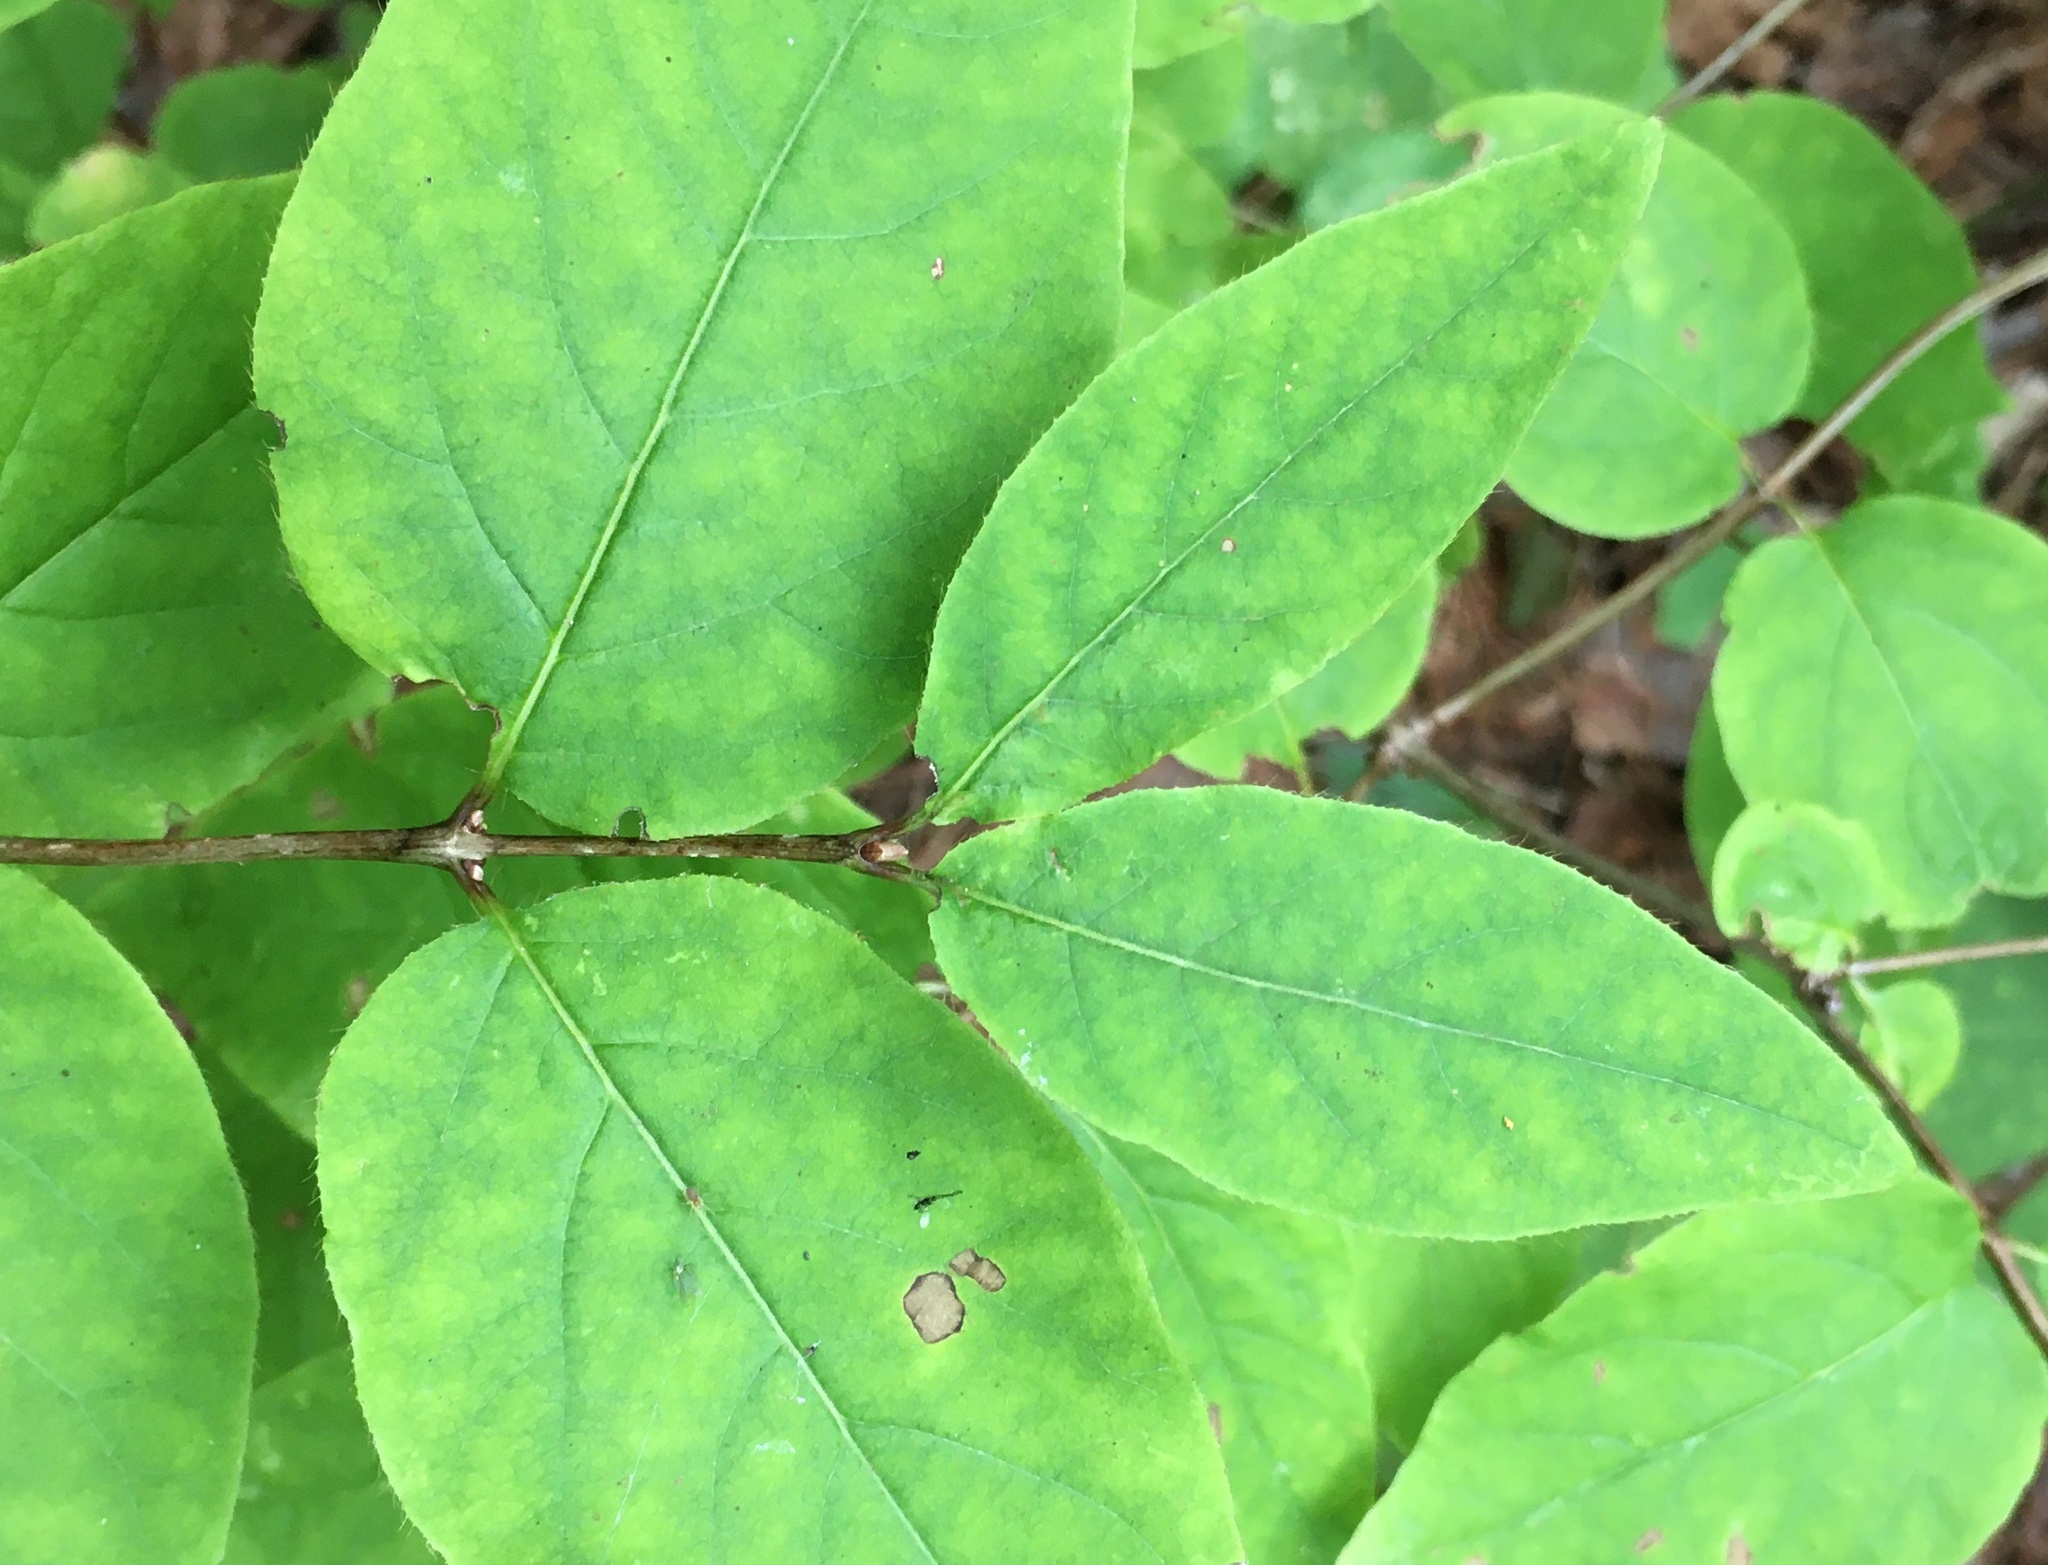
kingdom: Plantae
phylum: Tracheophyta
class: Magnoliopsida
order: Dipsacales
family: Caprifoliaceae
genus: Lonicera
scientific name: Lonicera canadensis
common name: American fly-honeysuckle
